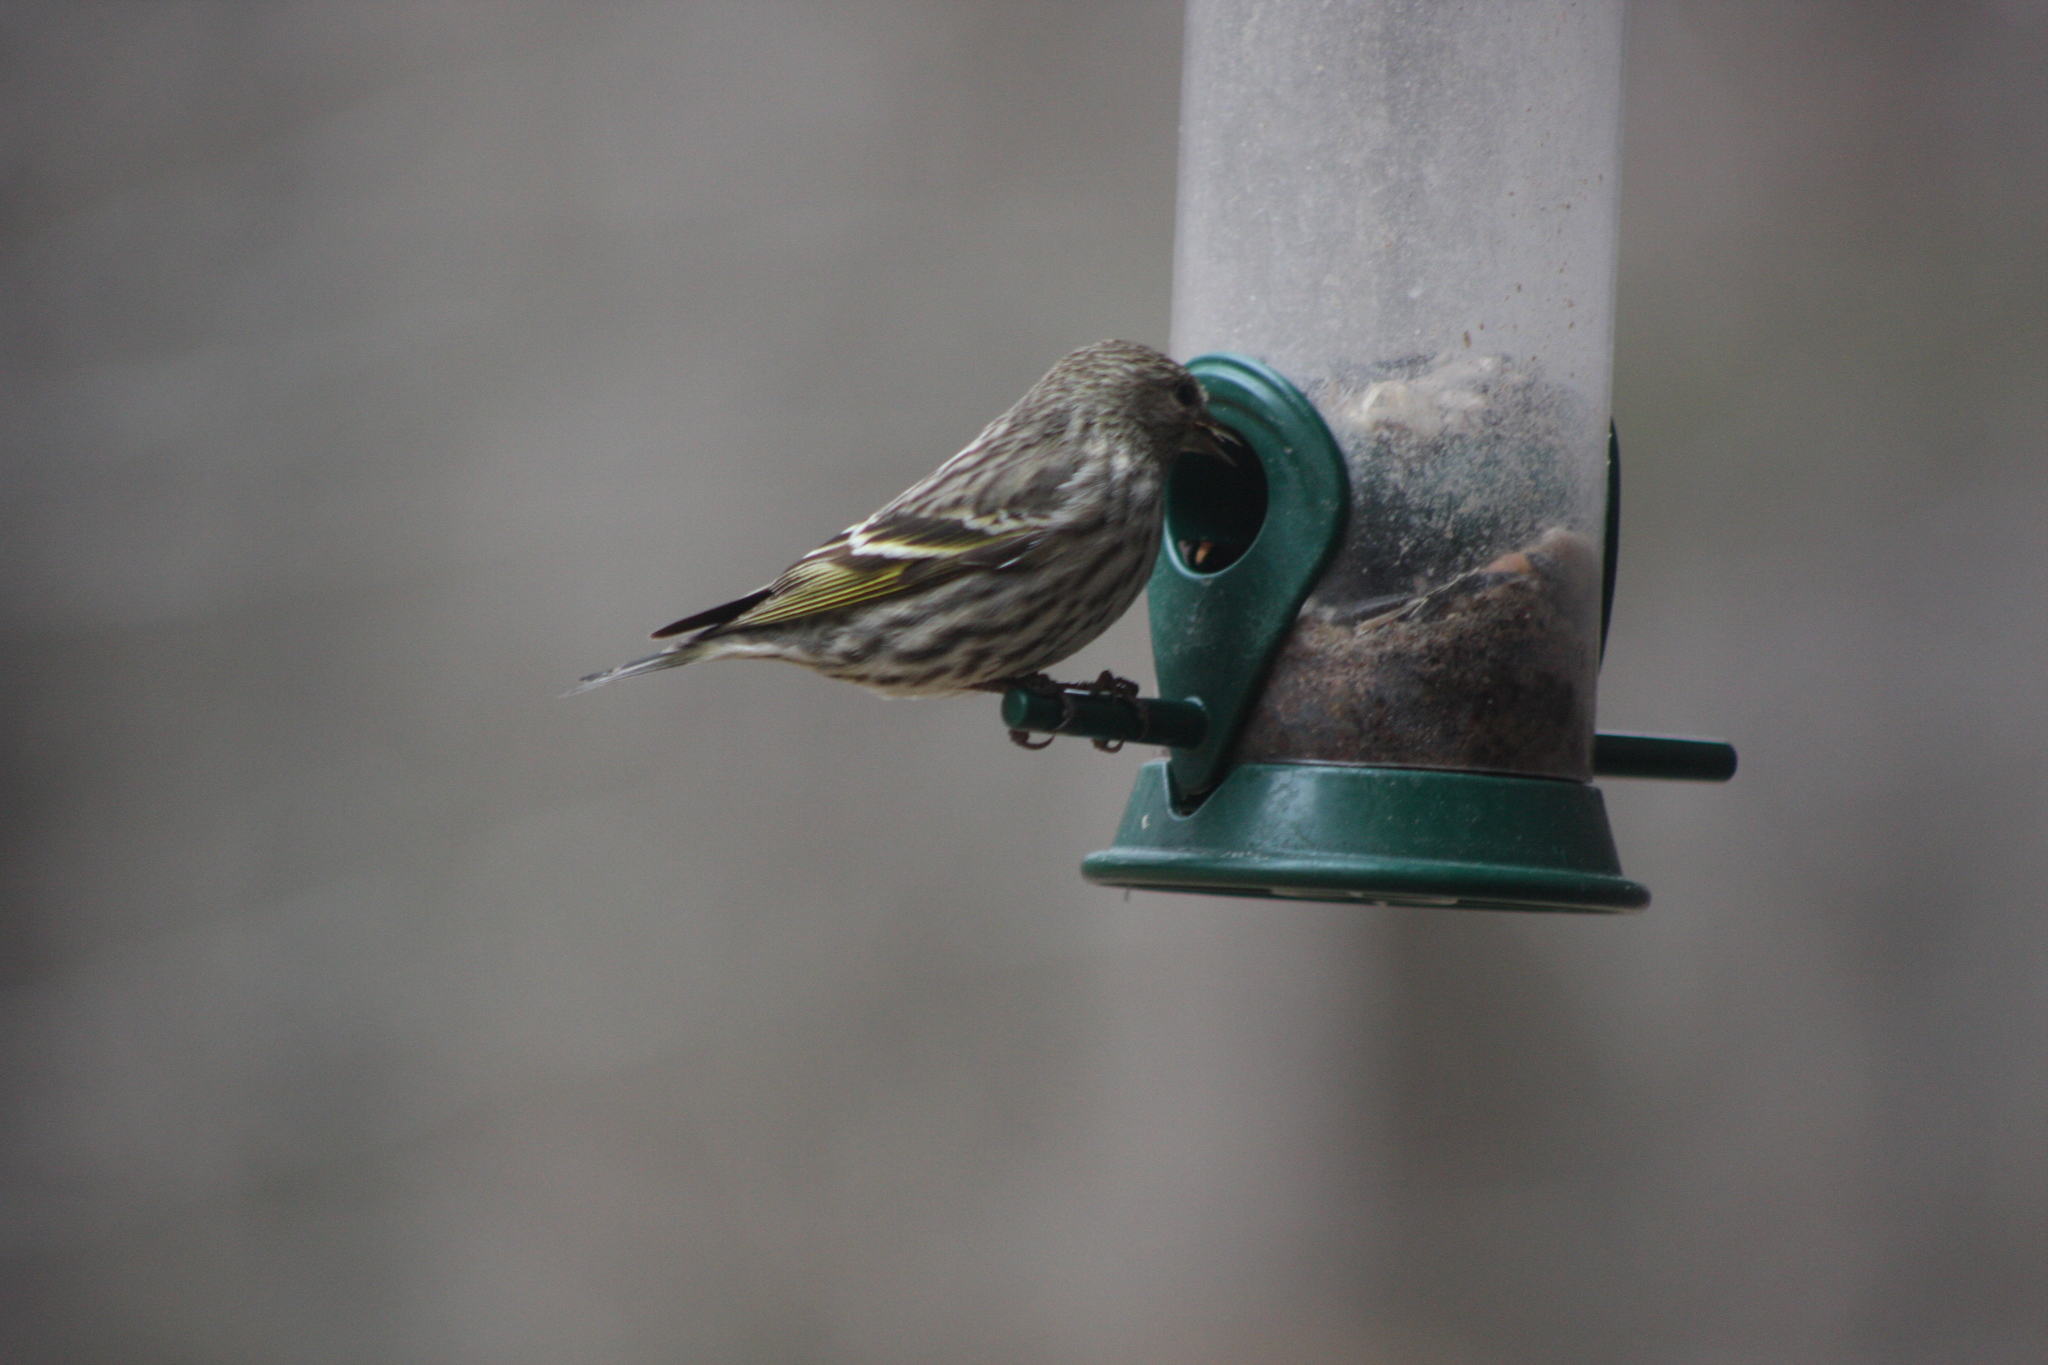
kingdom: Animalia
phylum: Chordata
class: Aves
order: Passeriformes
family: Fringillidae
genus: Spinus
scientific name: Spinus pinus
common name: Pine siskin
